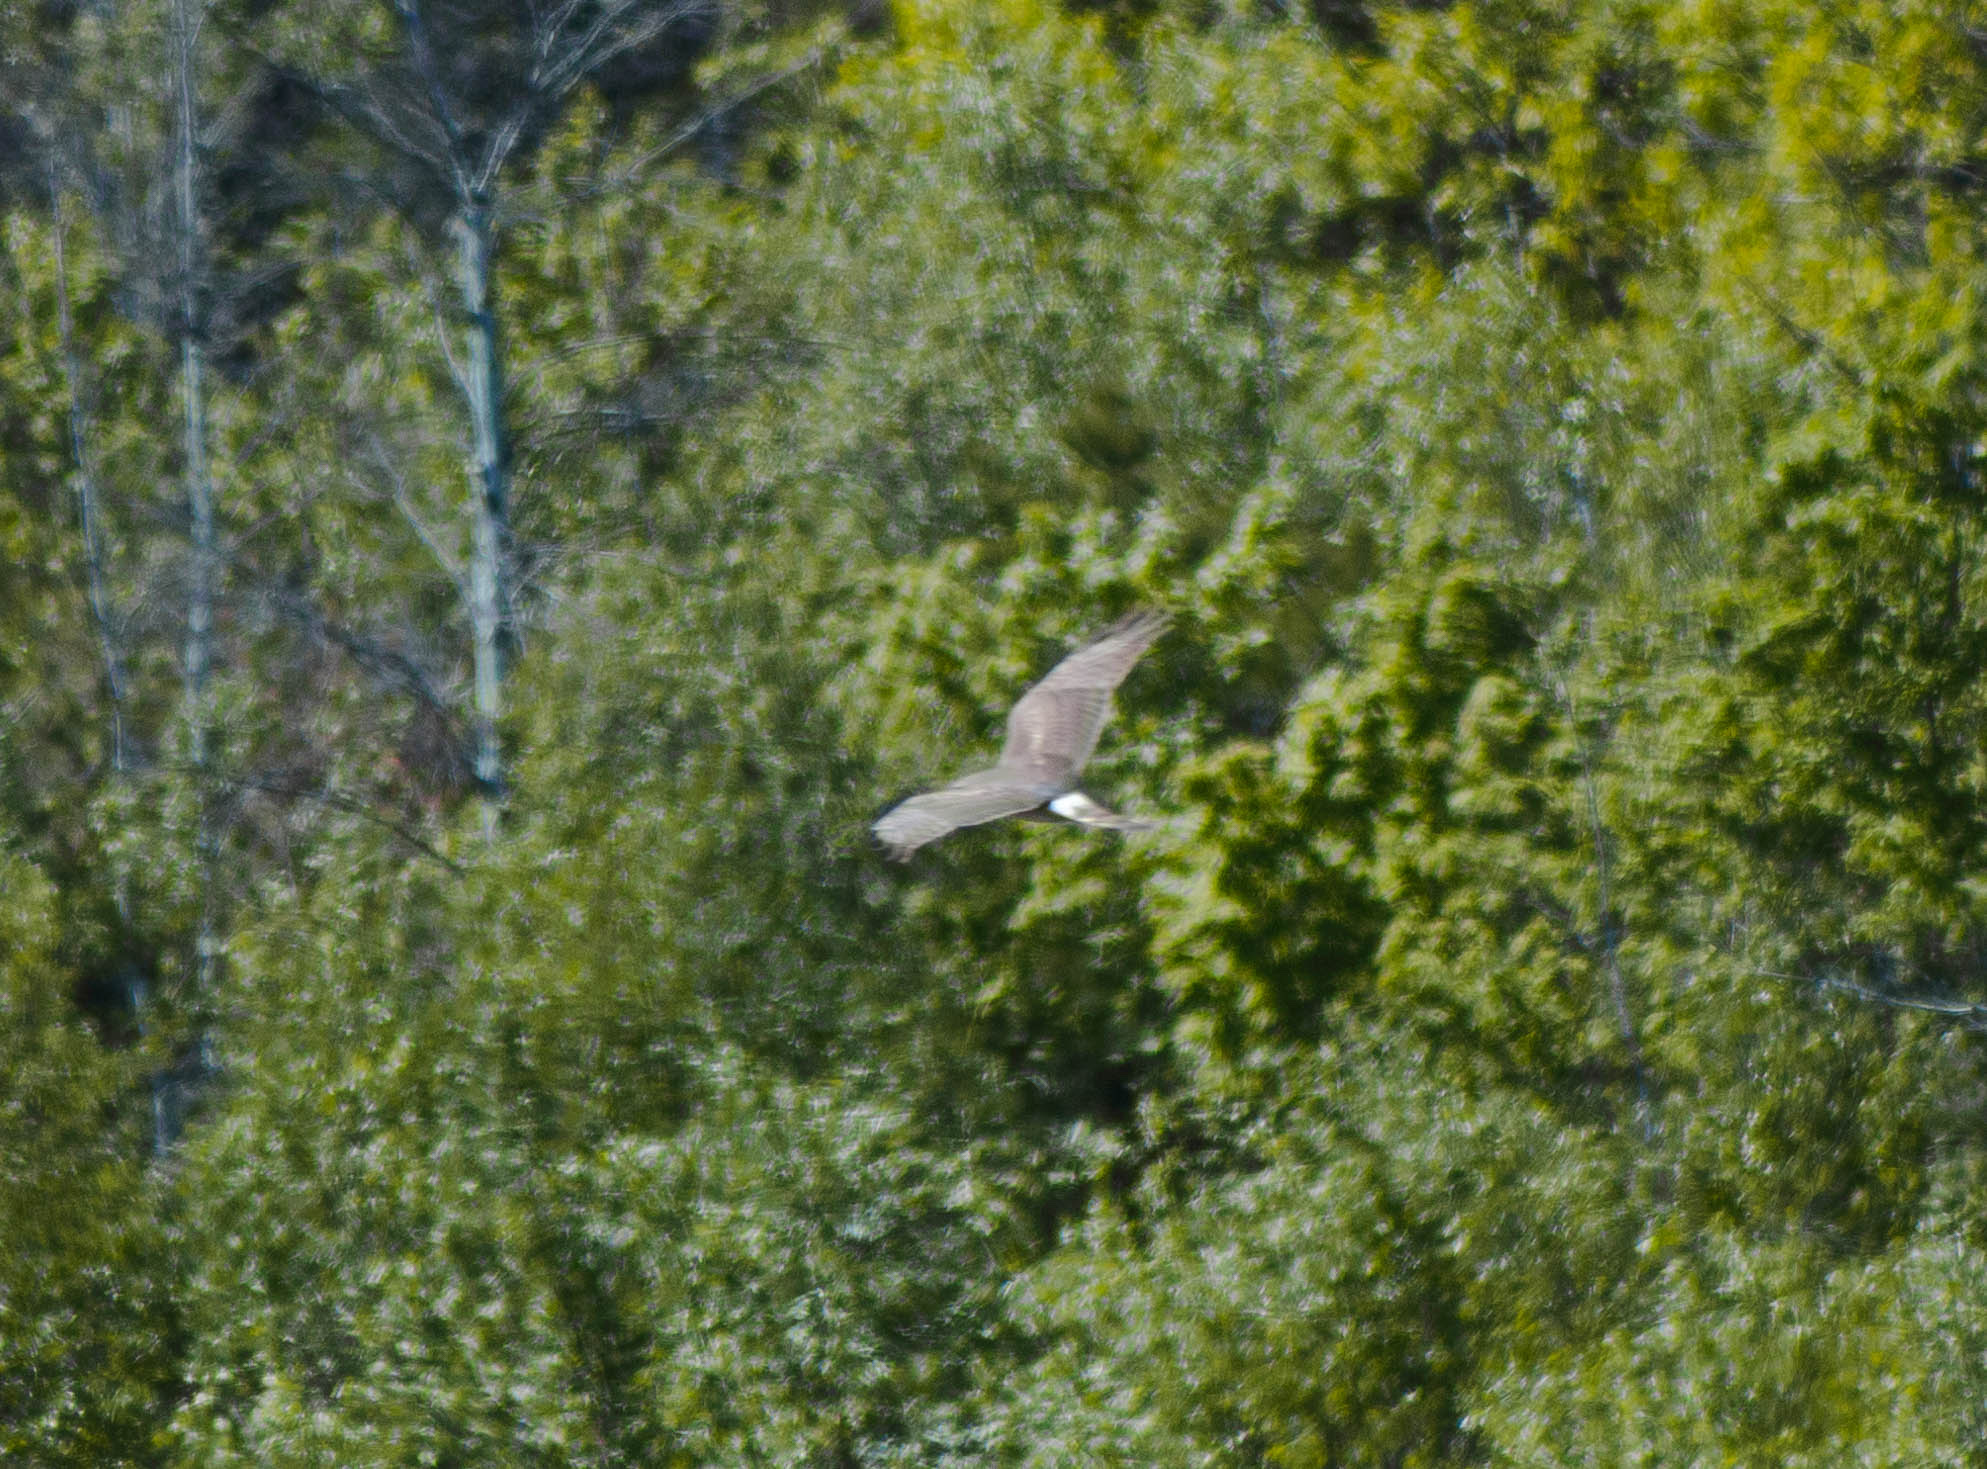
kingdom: Animalia
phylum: Chordata
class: Aves
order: Accipitriformes
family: Accipitridae
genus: Circus
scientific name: Circus cyaneus
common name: Hen harrier
